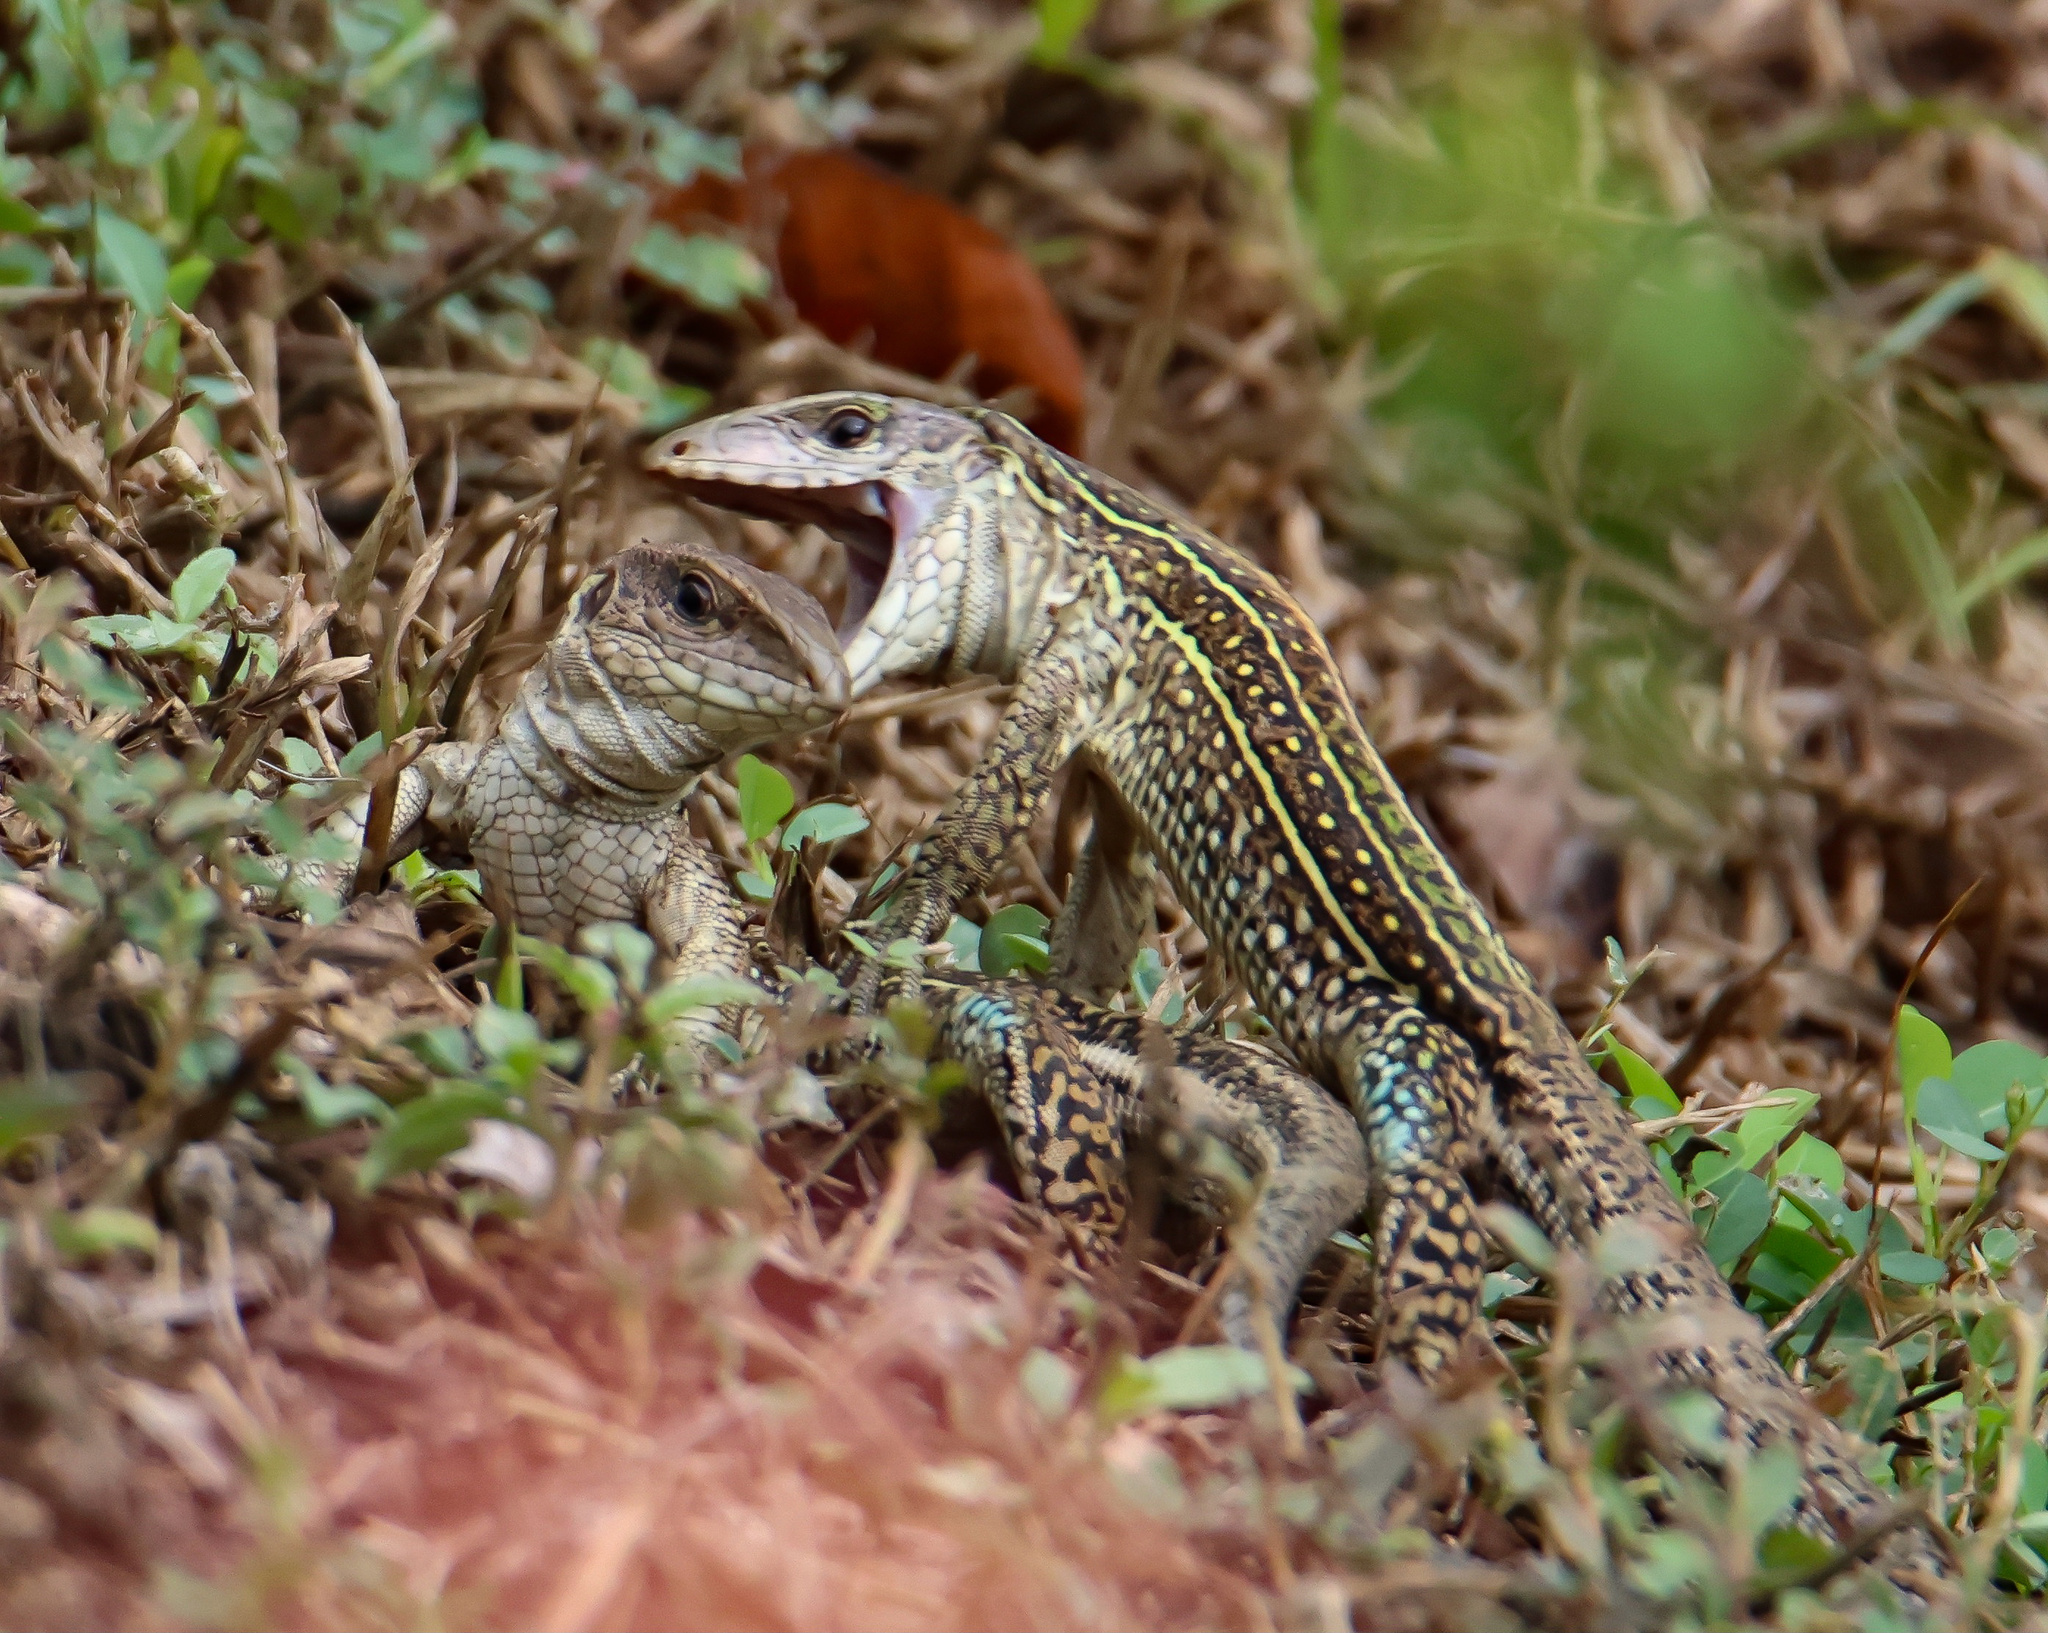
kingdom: Animalia
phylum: Chordata
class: Squamata
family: Teiidae
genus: Ameiva
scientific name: Ameiva praesignis
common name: Giant ameiva
